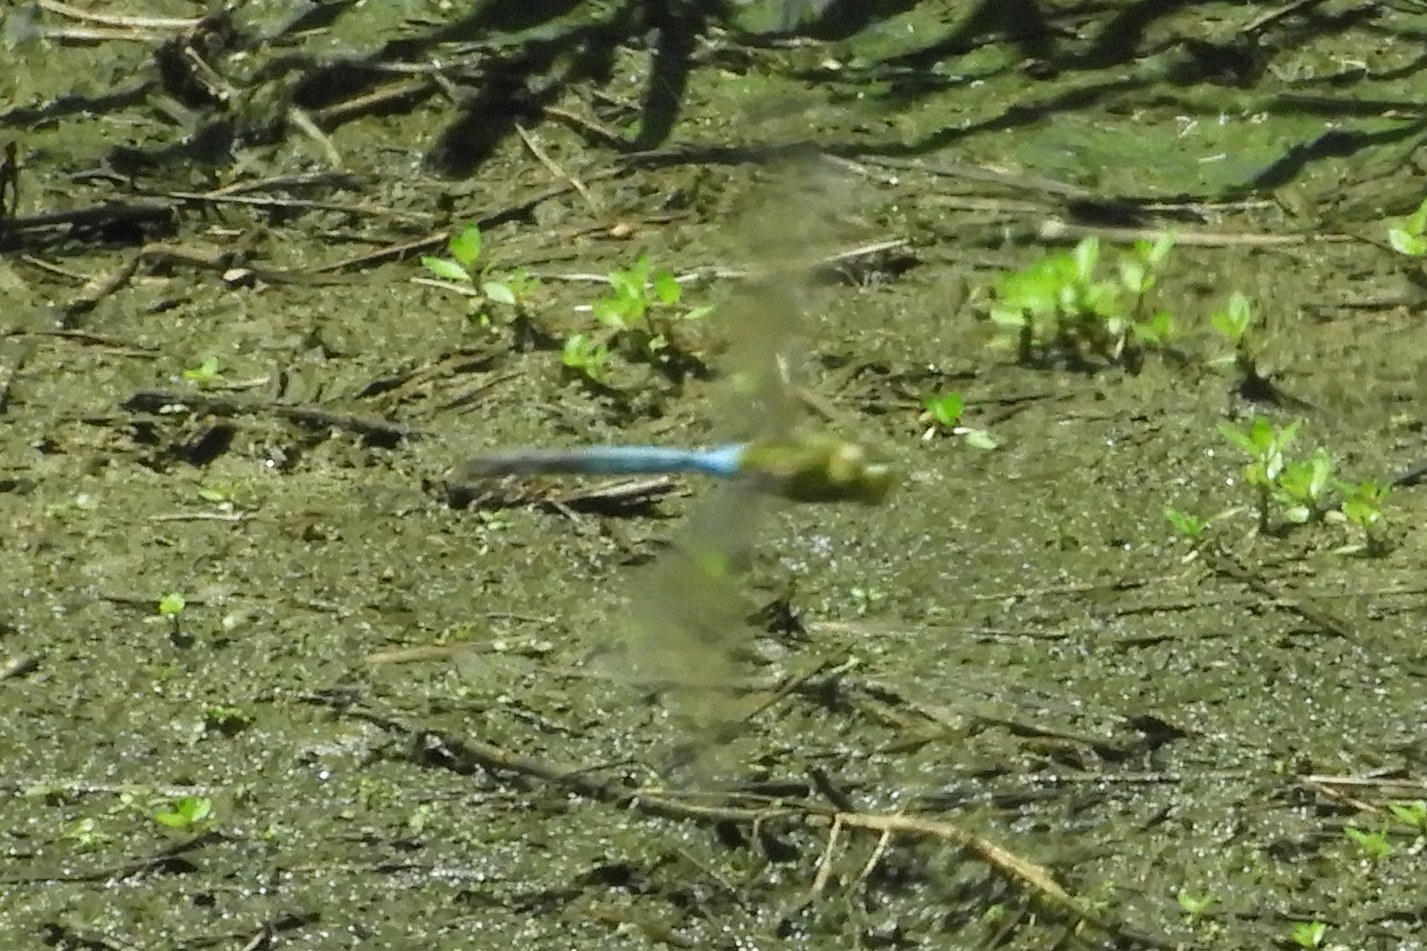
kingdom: Animalia
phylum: Arthropoda
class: Insecta
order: Odonata
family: Aeshnidae
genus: Anax
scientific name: Anax junius
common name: Common green darner
